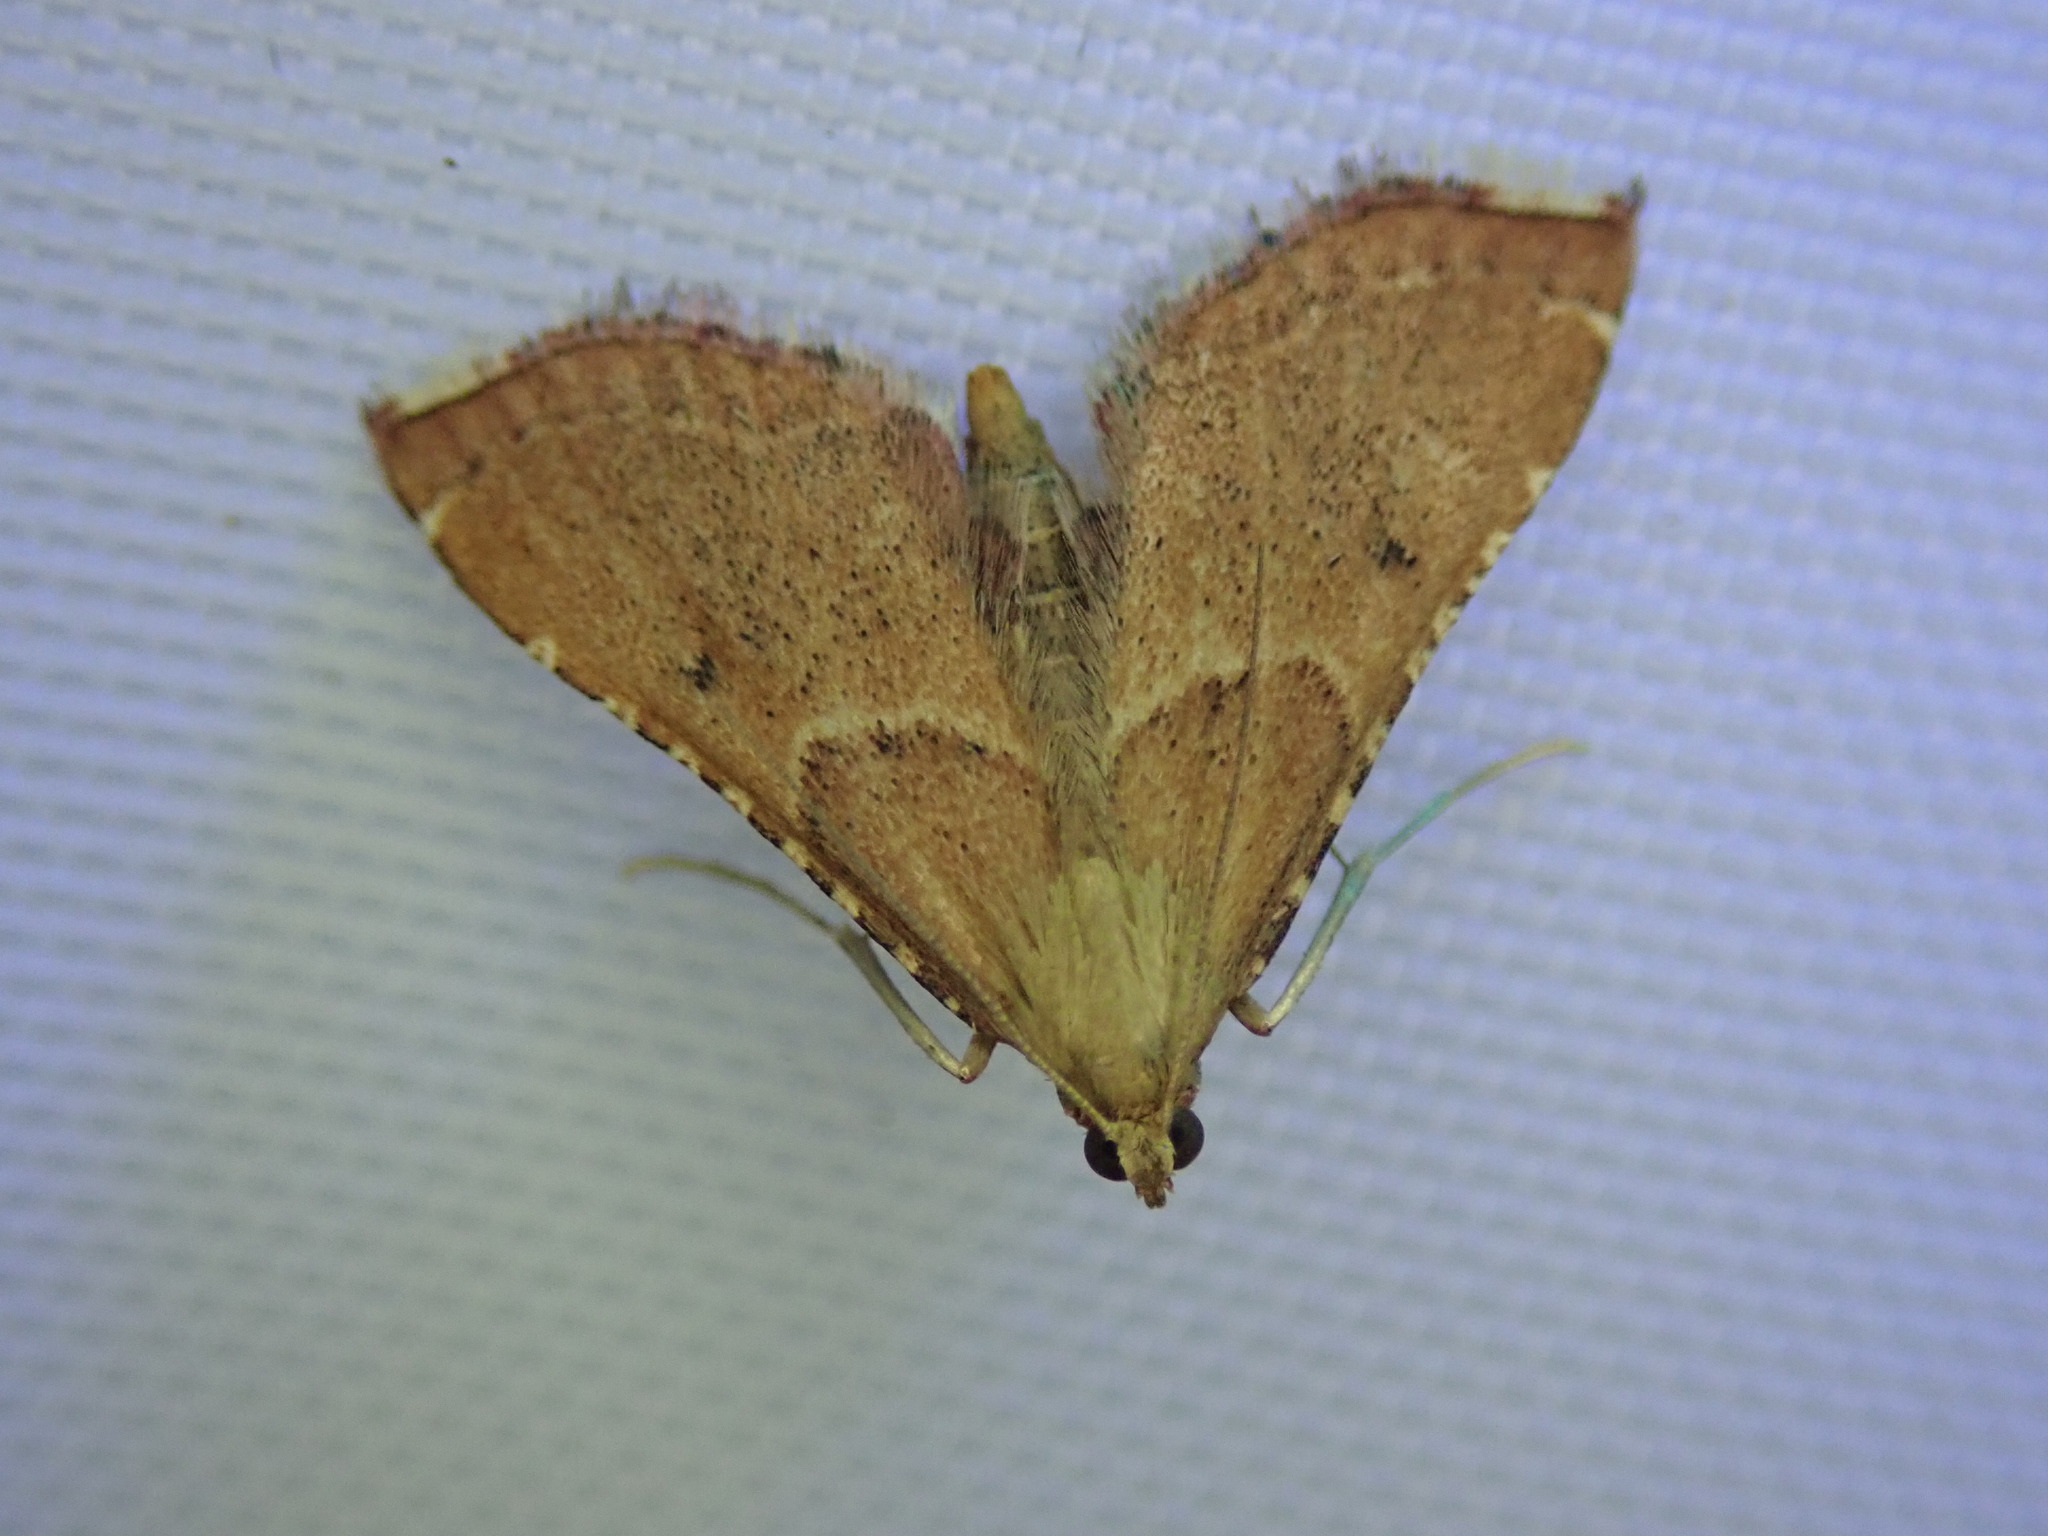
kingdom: Animalia
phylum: Arthropoda
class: Insecta
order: Lepidoptera
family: Pyralidae
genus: Endotricha
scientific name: Endotricha flammealis
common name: Rosy tabby
